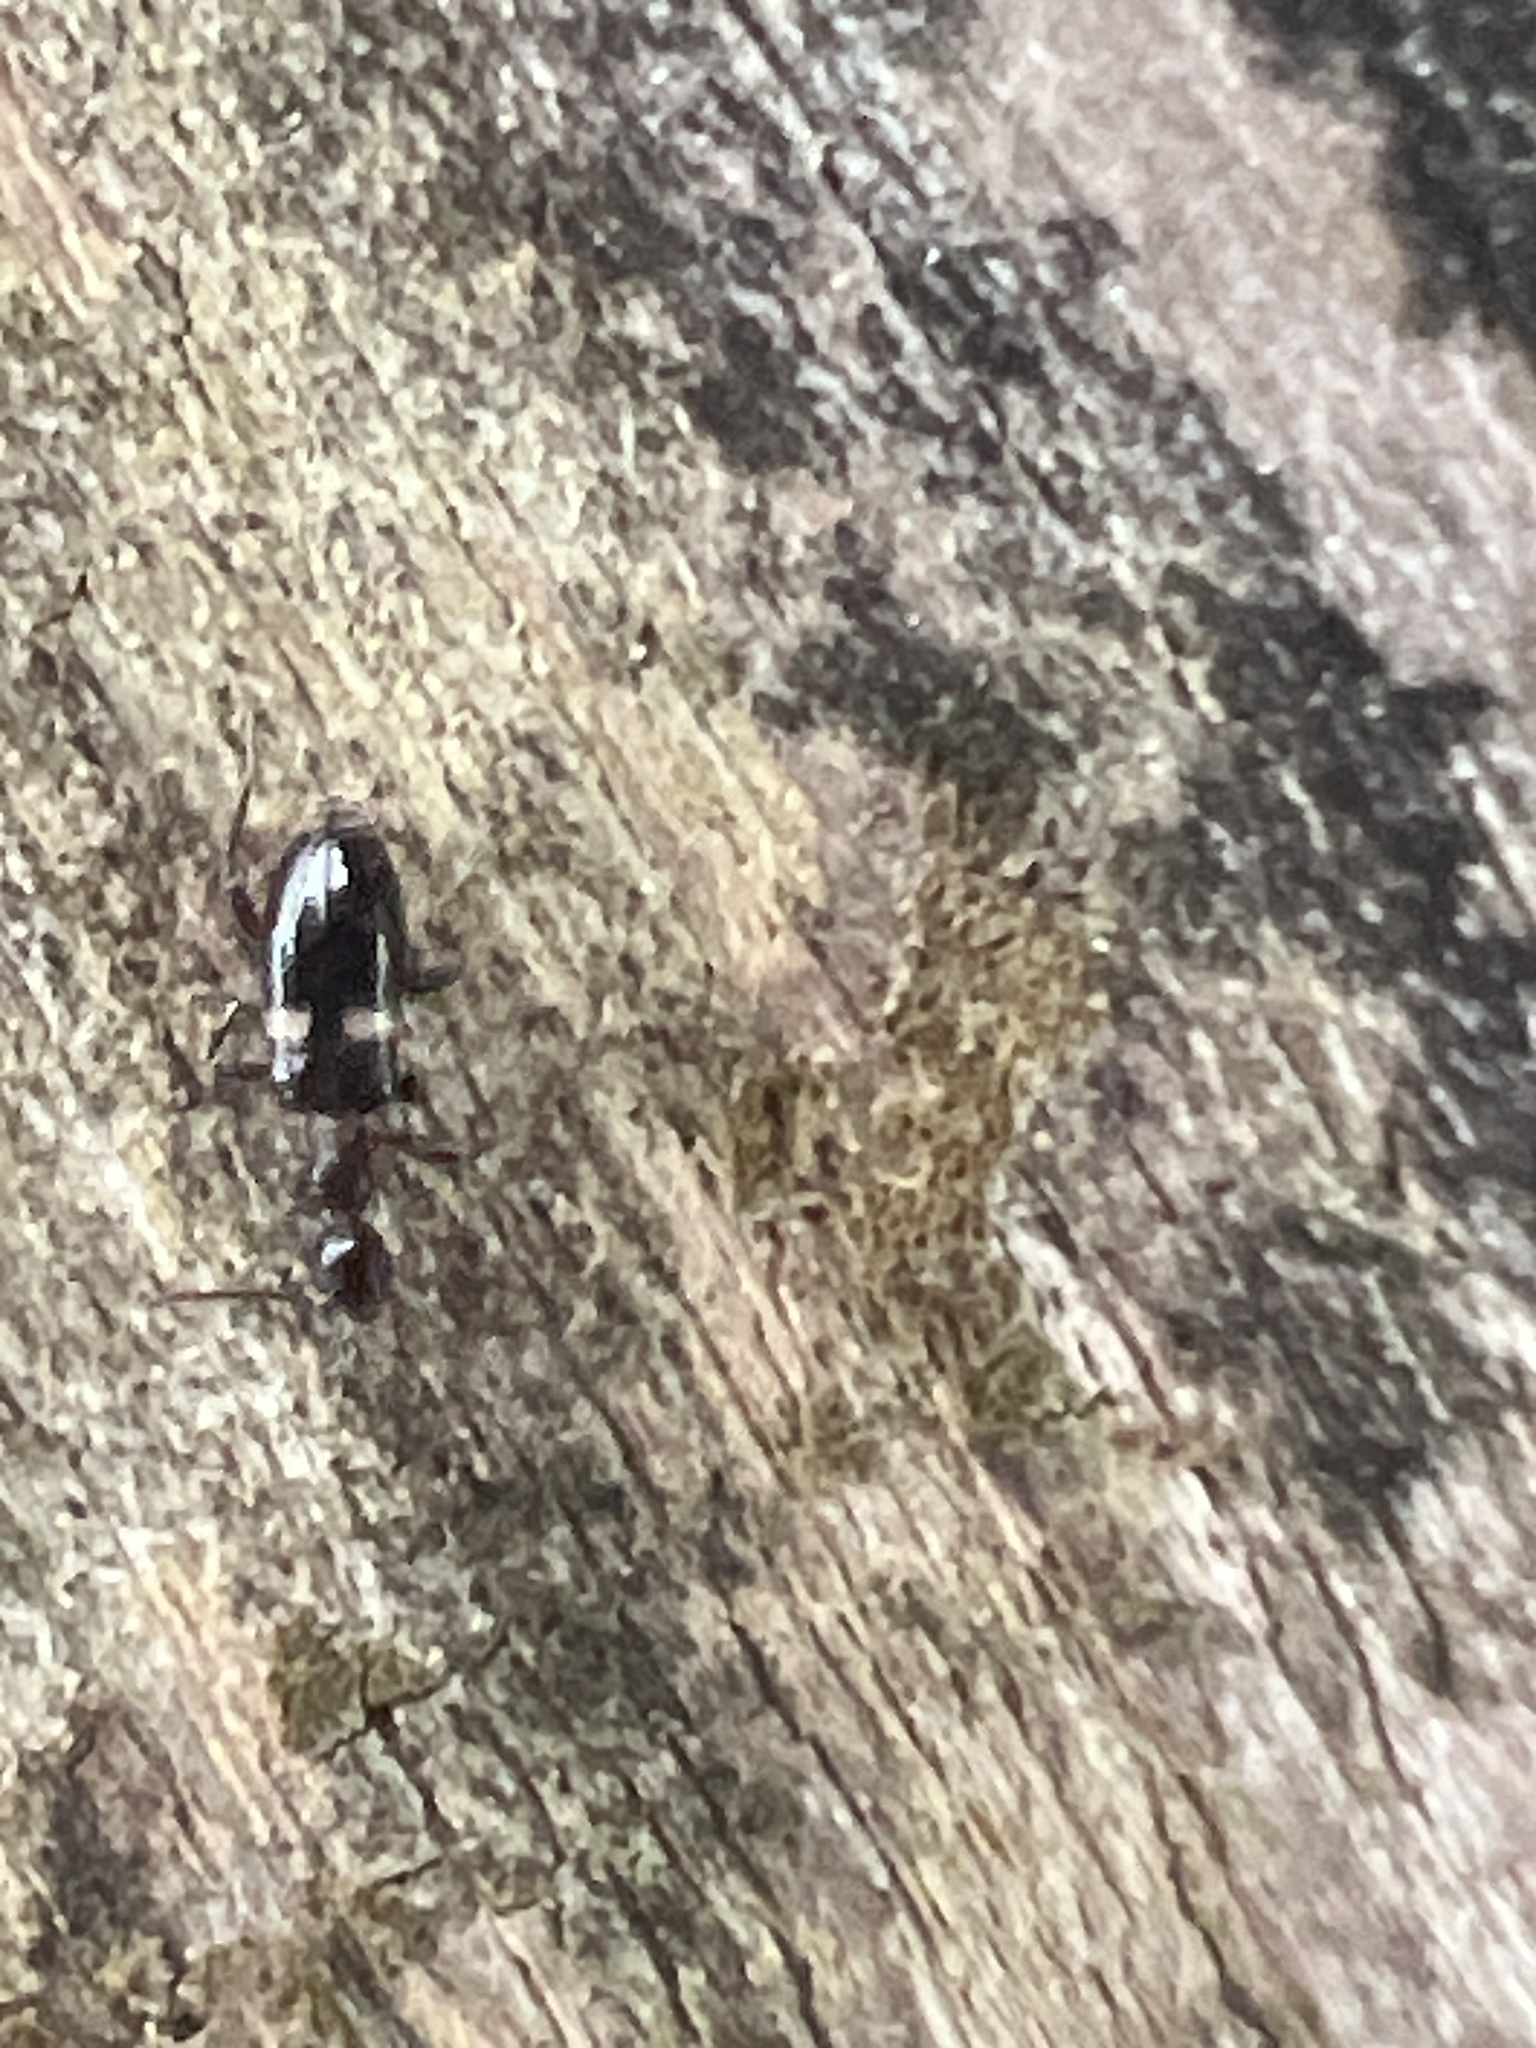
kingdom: Animalia
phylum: Arthropoda
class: Insecta
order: Coleoptera
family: Anthicidae
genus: Malporus
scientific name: Malporus formicarius
